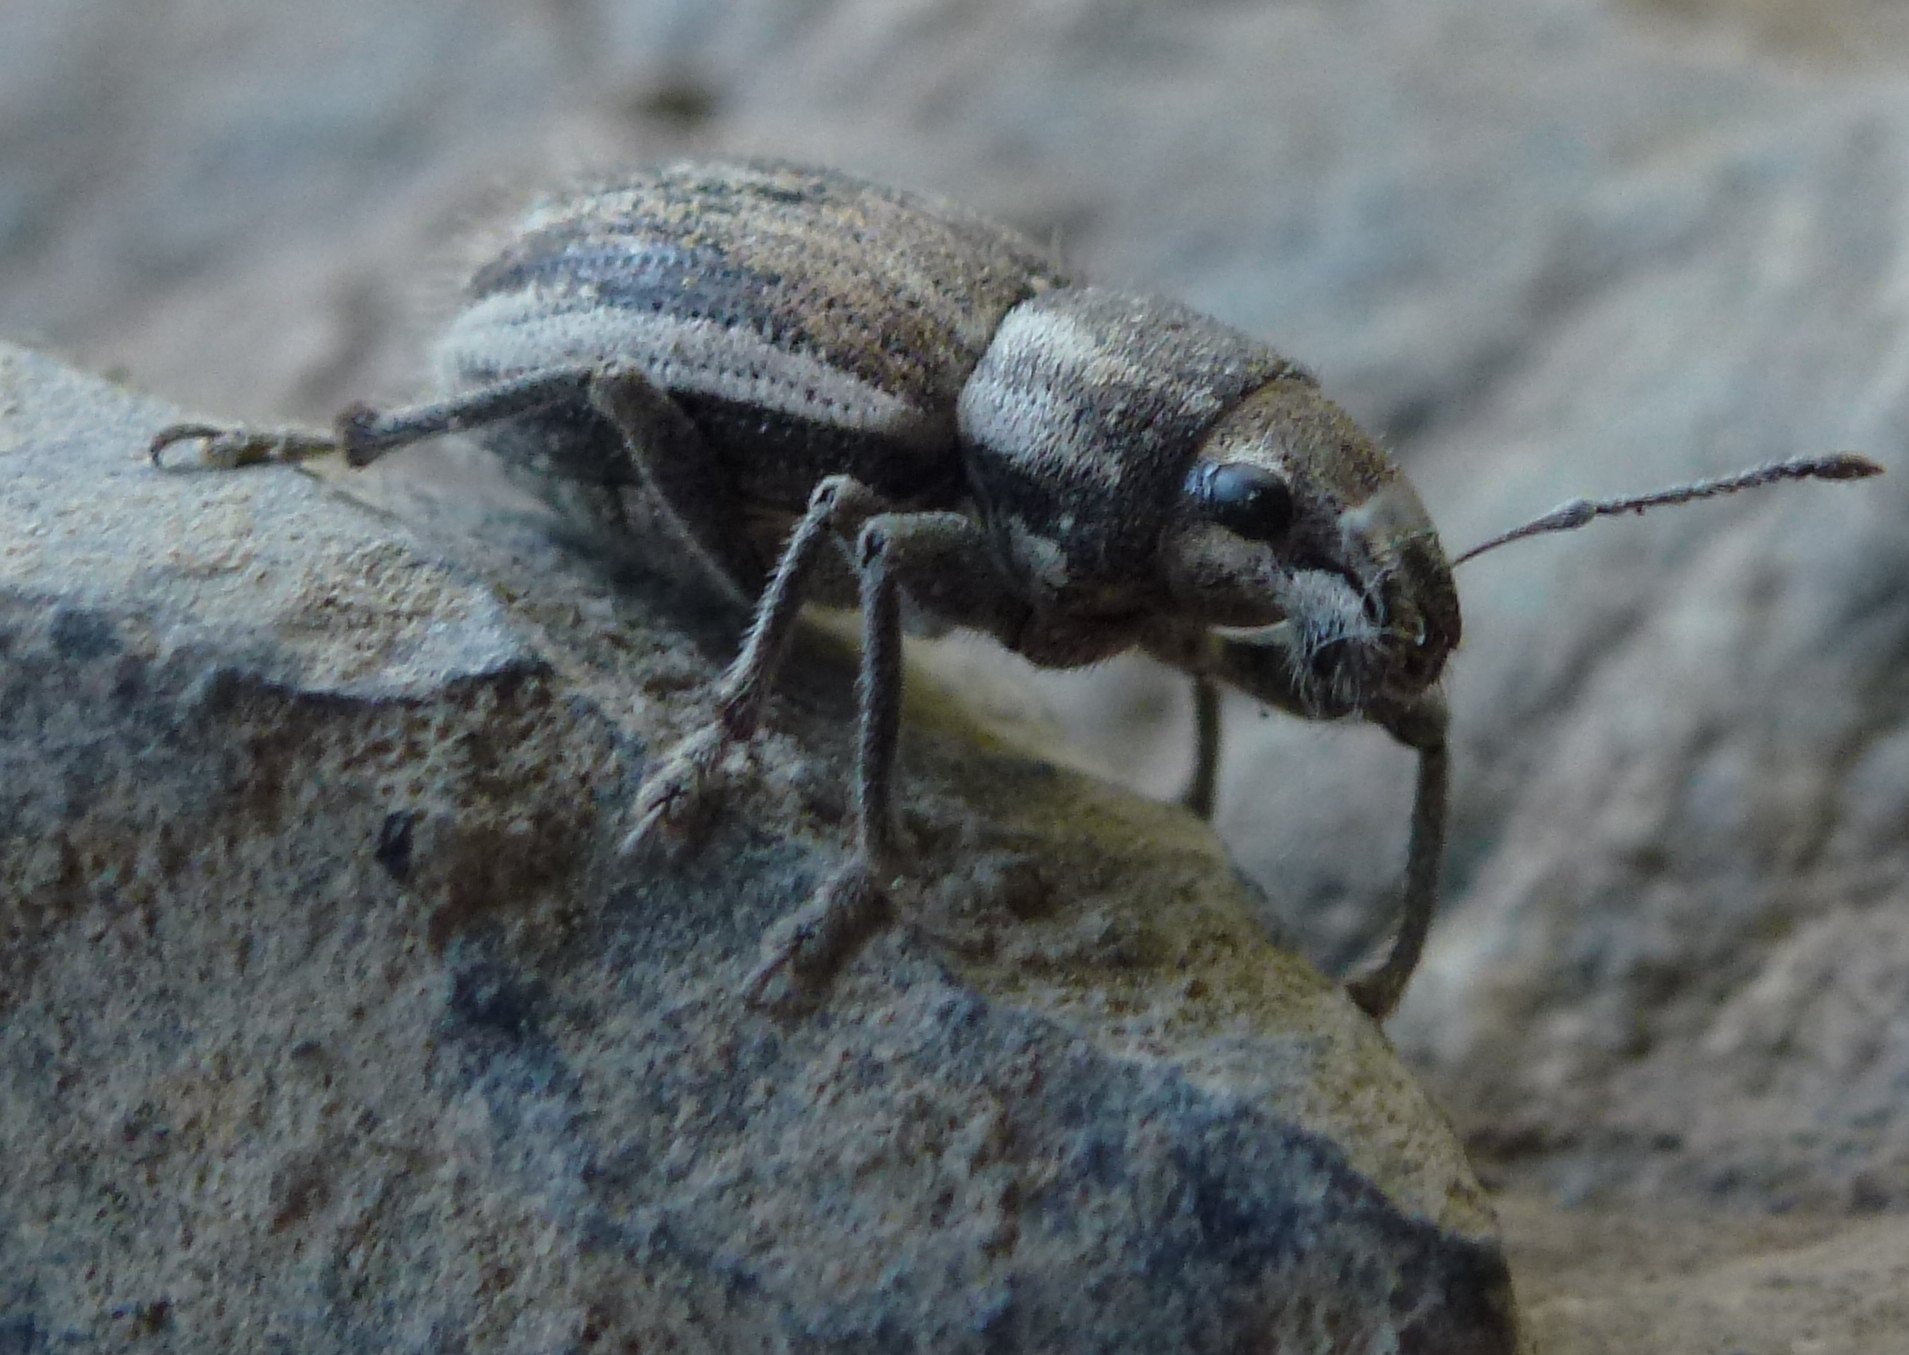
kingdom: Animalia
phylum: Arthropoda
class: Insecta
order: Coleoptera
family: Curculionidae
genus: Naupactus
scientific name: Naupactus leucoloma
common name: Whitefringed beetle
